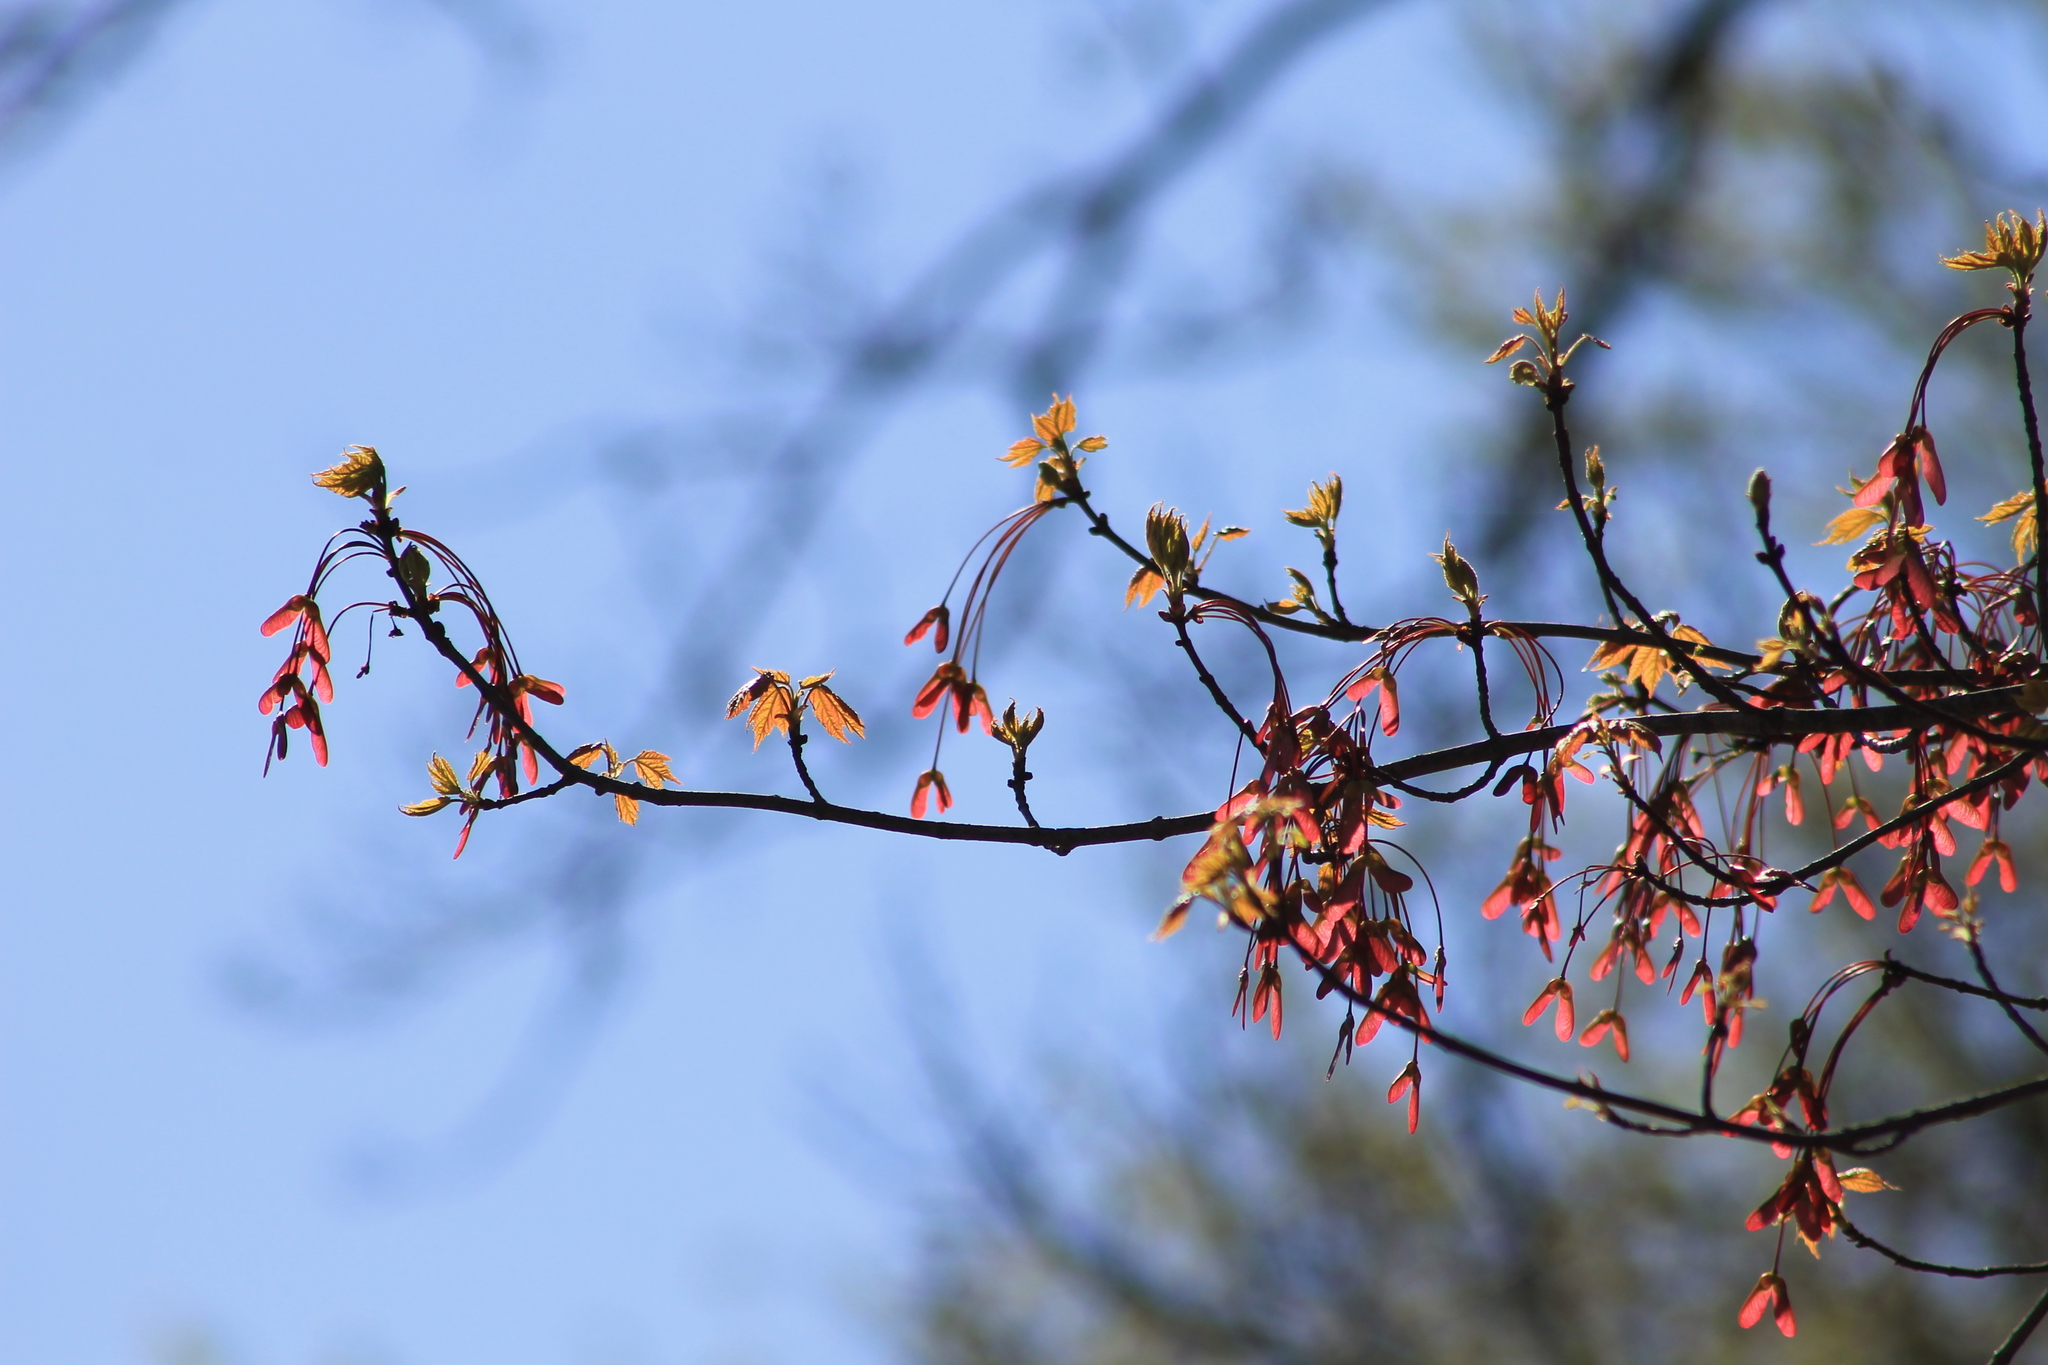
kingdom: Plantae
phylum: Tracheophyta
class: Magnoliopsida
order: Sapindales
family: Sapindaceae
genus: Acer
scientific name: Acer rubrum
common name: Red maple
